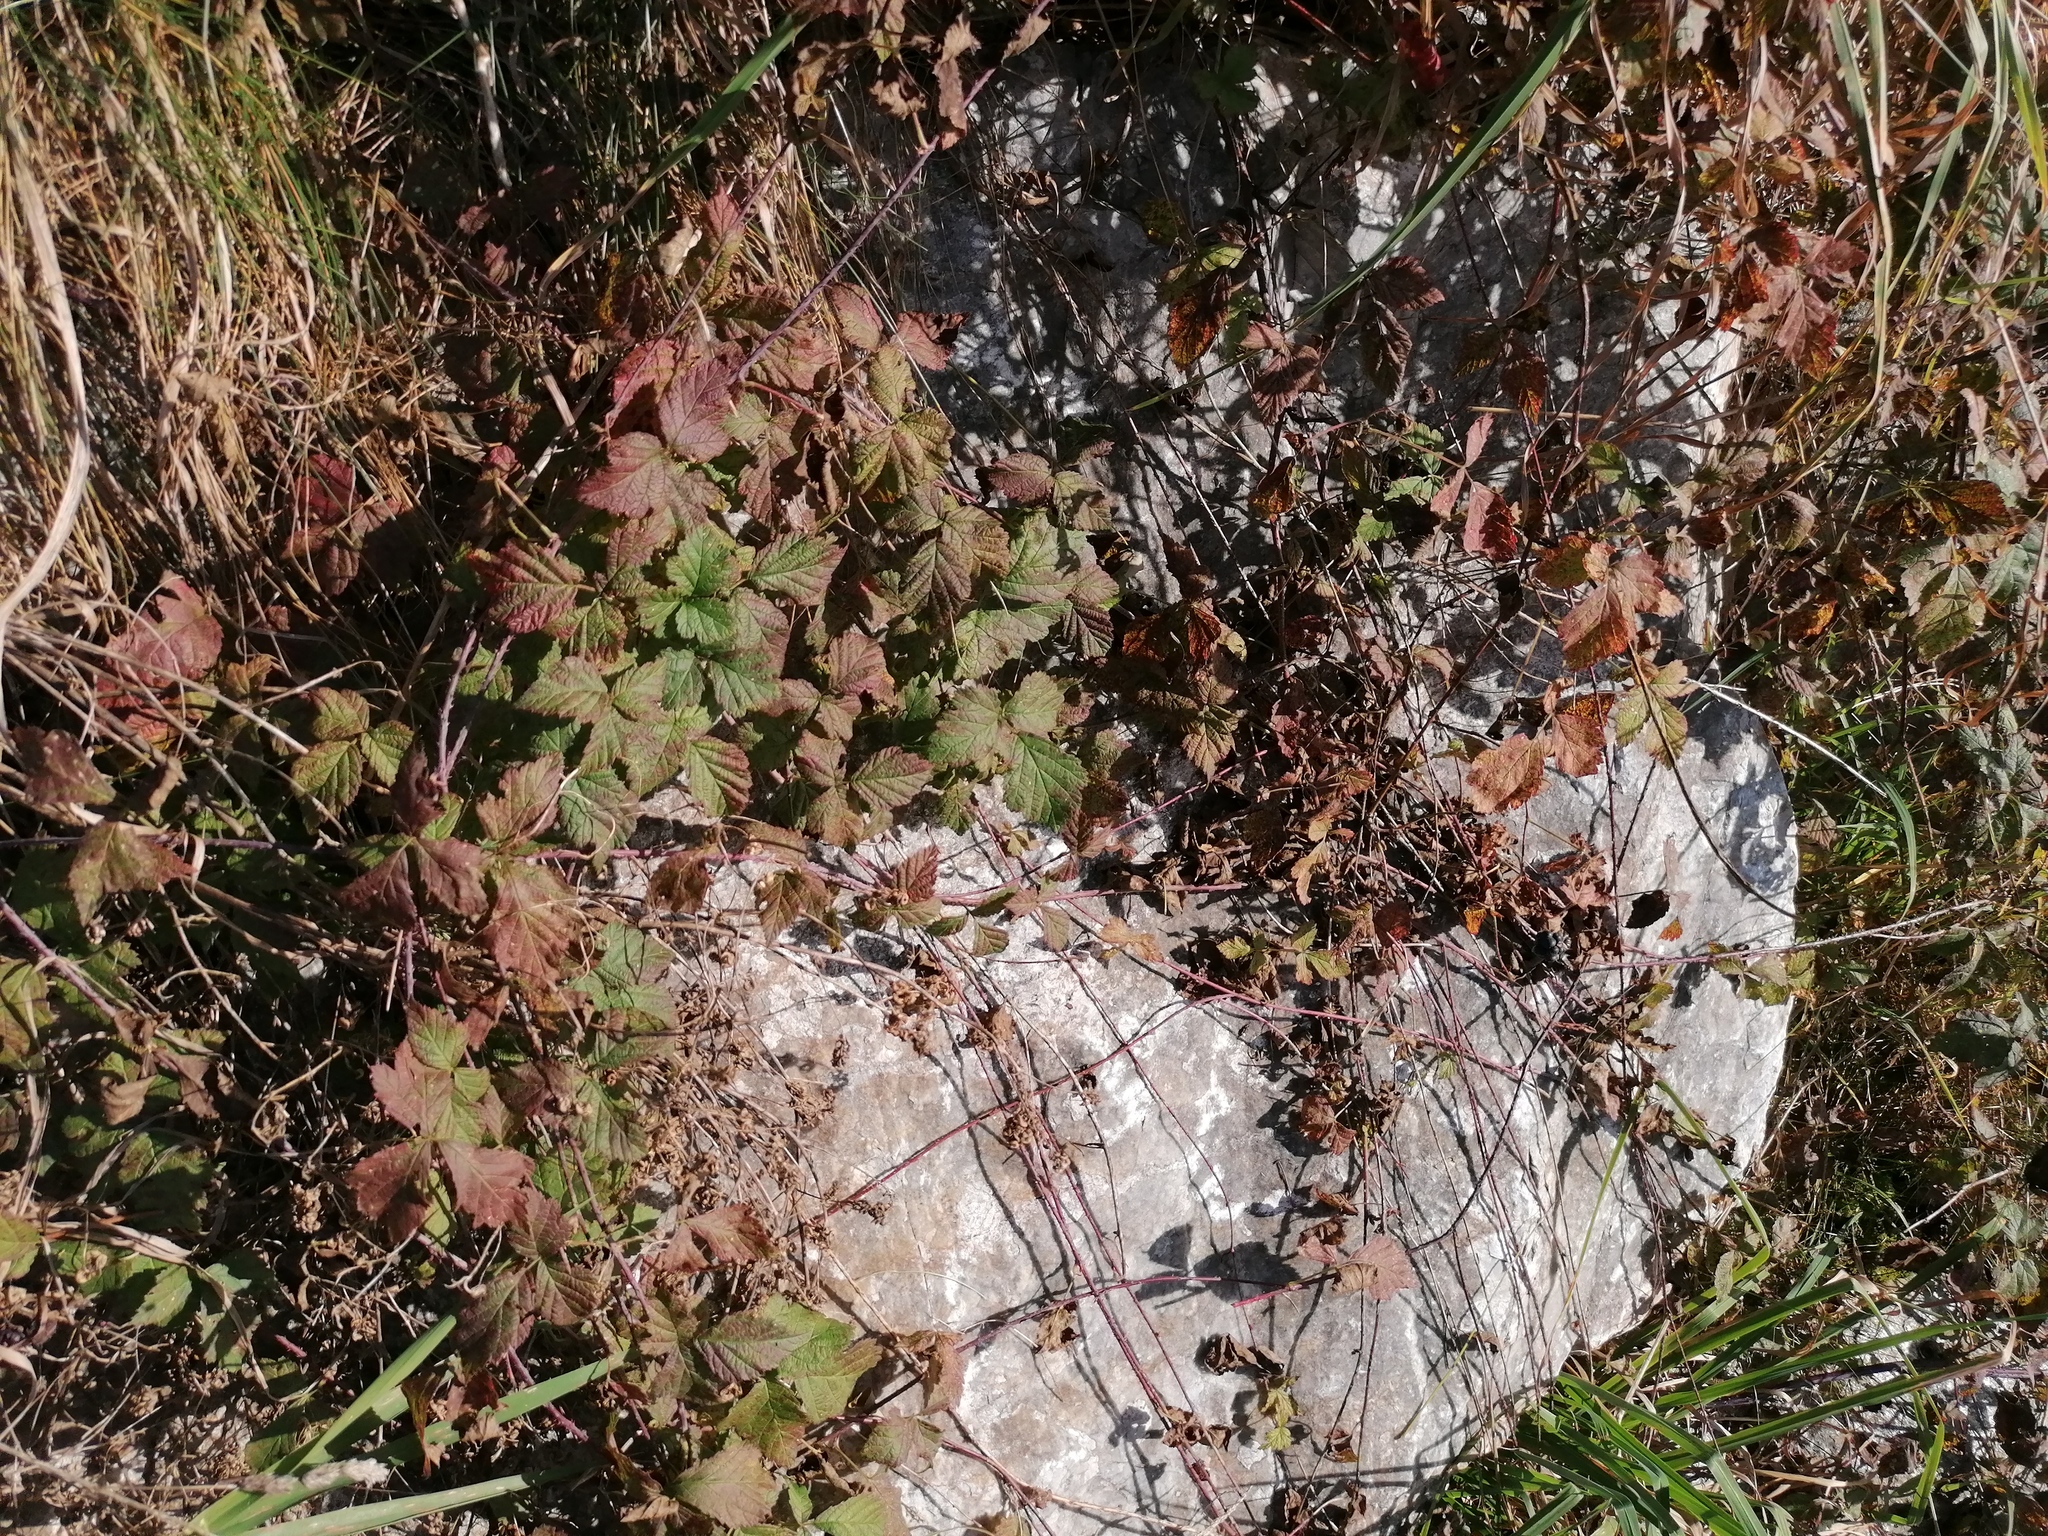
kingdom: Plantae
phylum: Tracheophyta
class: Magnoliopsida
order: Rosales
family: Rosaceae
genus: Rubus
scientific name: Rubus caesius
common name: Dewberry
